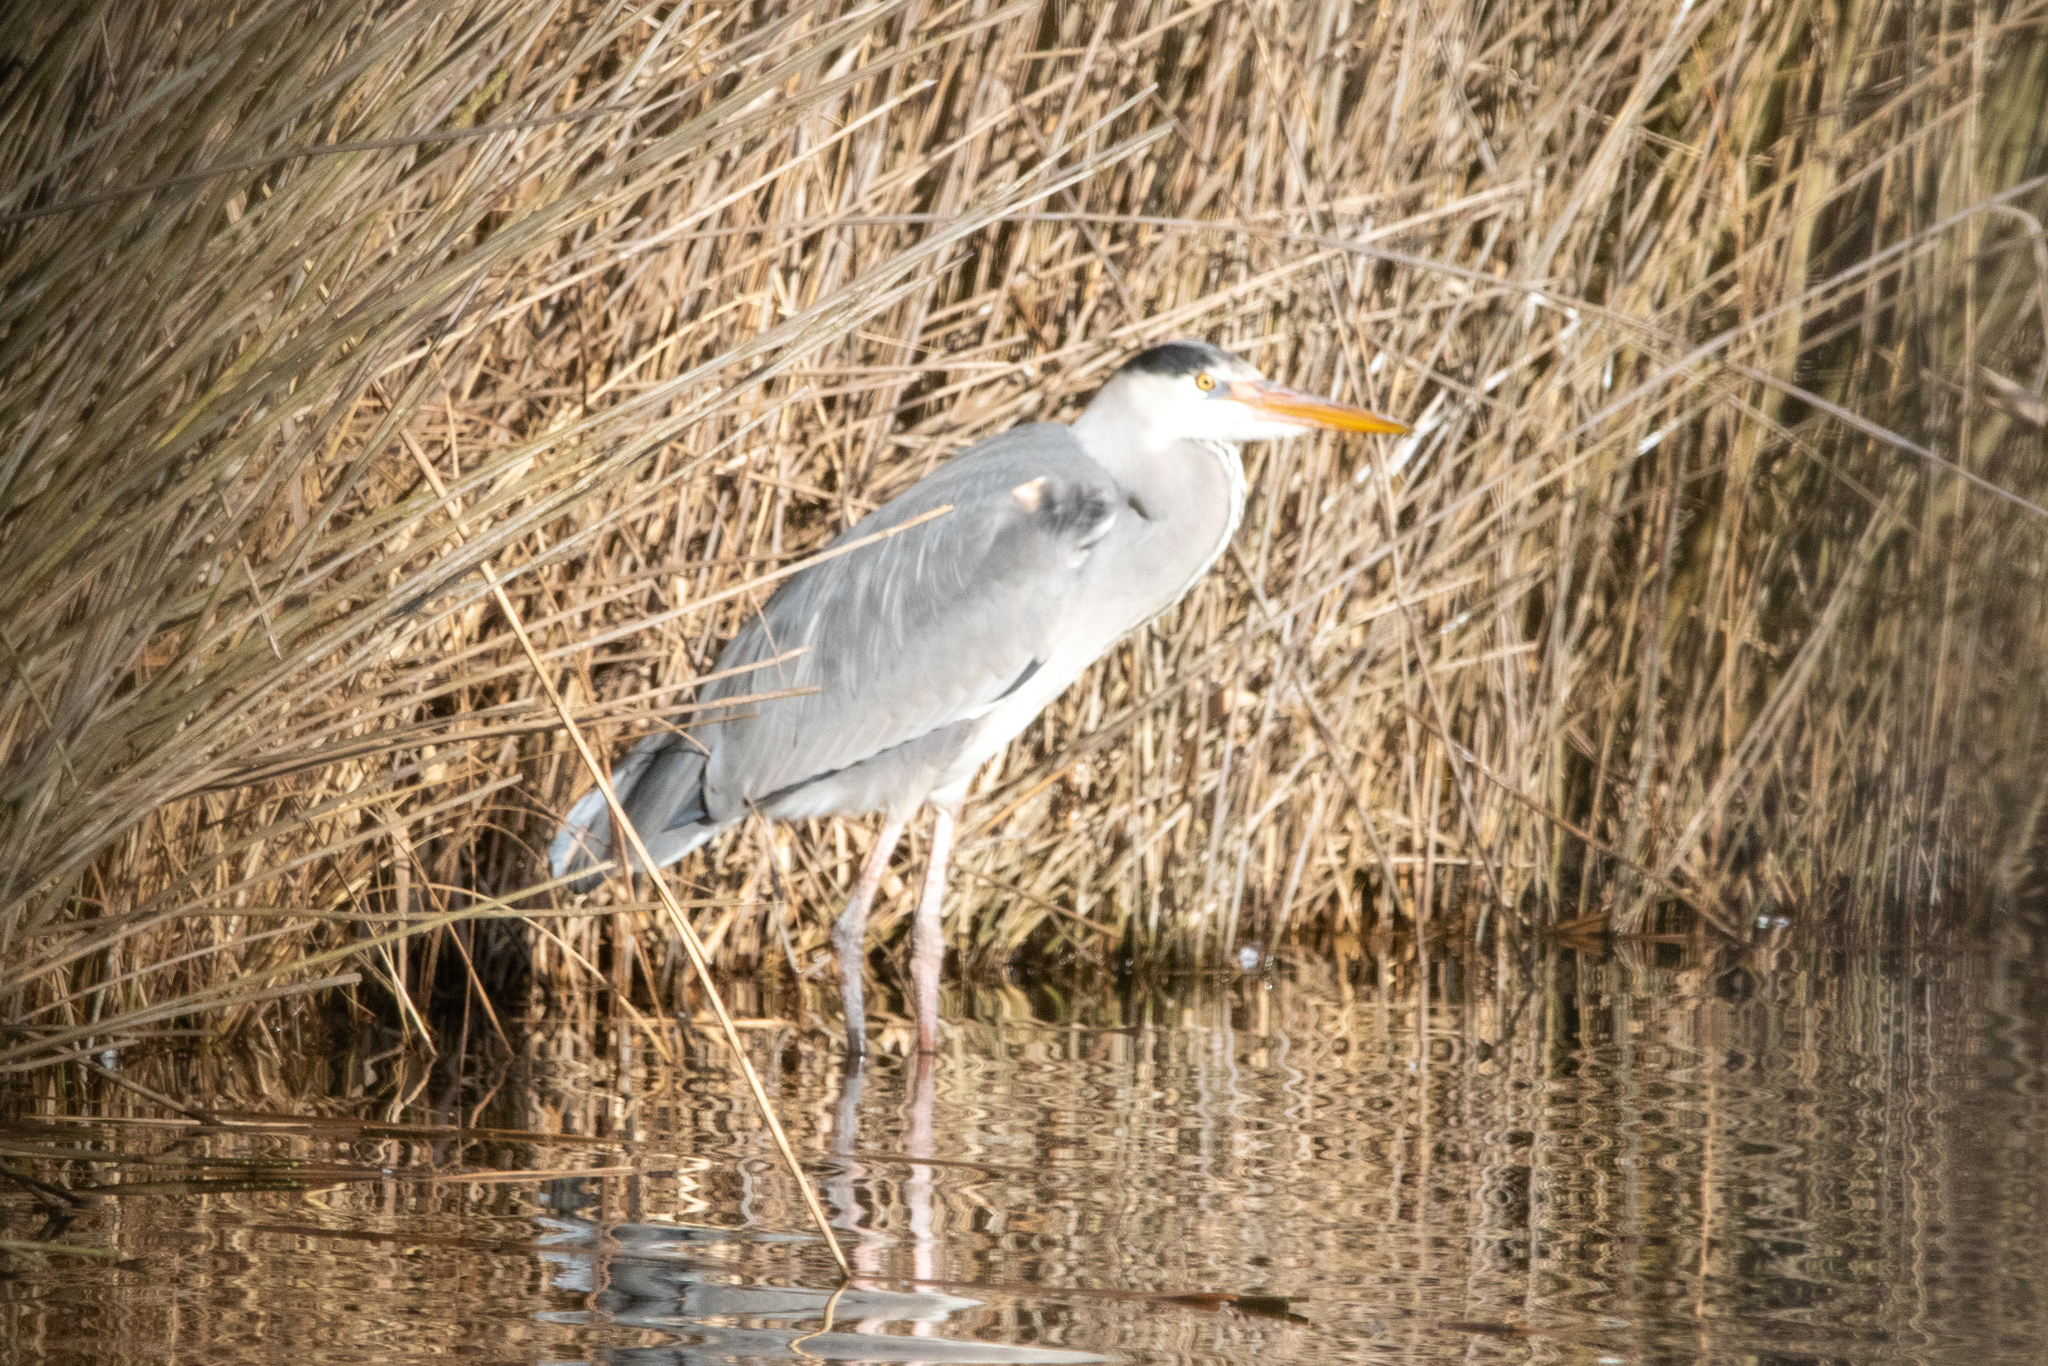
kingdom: Animalia
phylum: Chordata
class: Aves
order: Pelecaniformes
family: Ardeidae
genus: Ardea
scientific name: Ardea cinerea
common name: Grey heron
